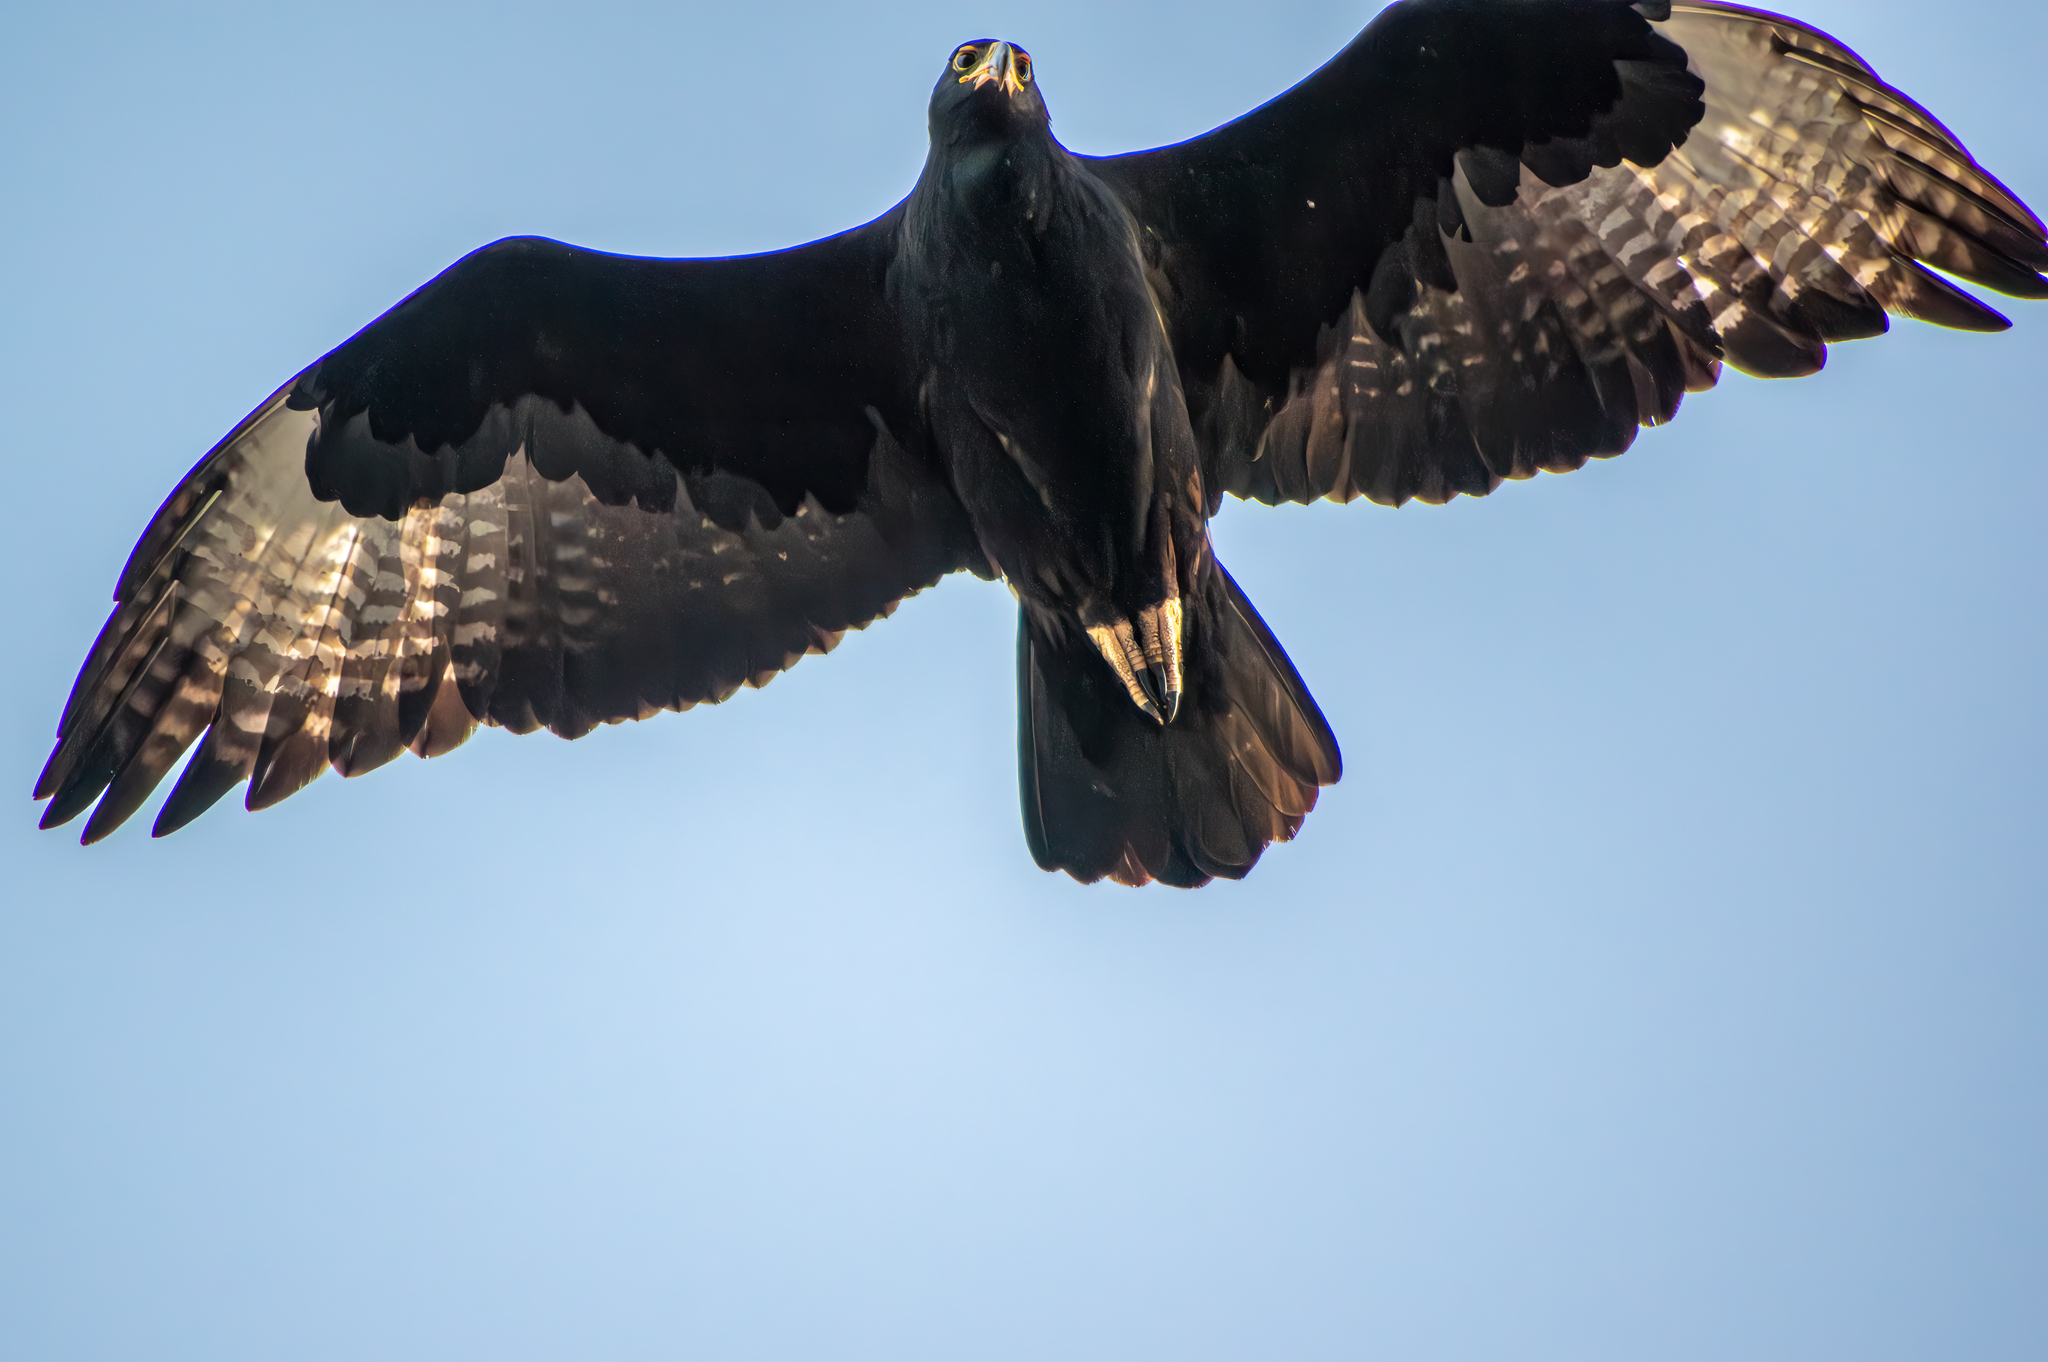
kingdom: Animalia
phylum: Chordata
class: Aves
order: Accipitriformes
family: Accipitridae
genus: Aquila
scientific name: Aquila verreauxii
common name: Verreaux's eagle
